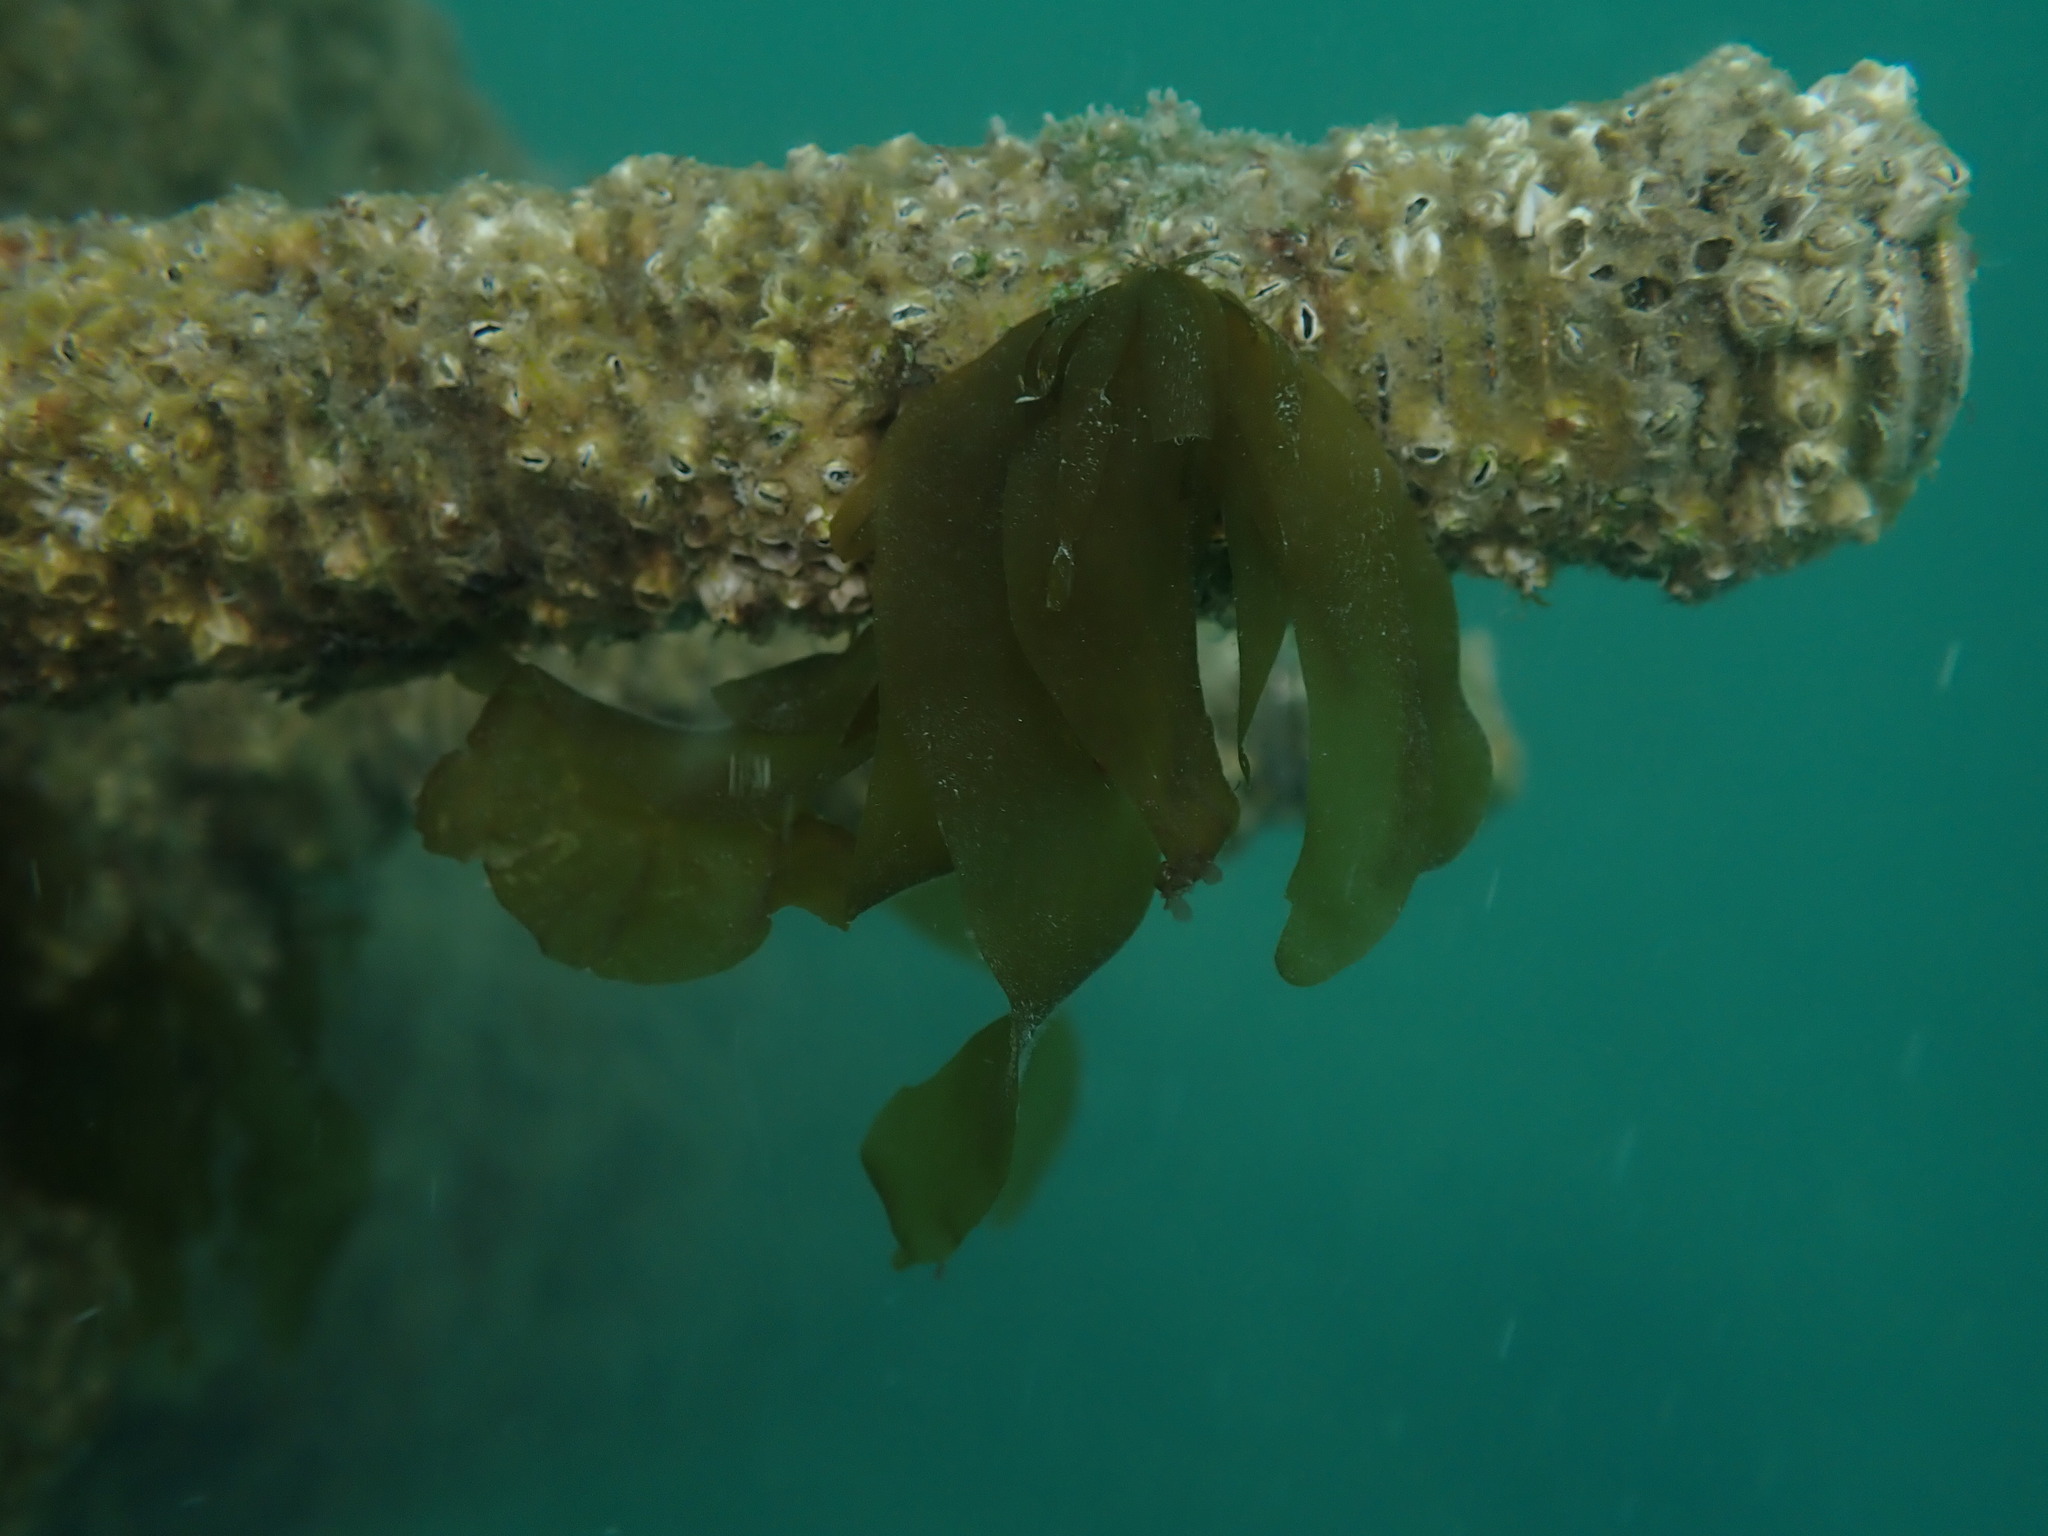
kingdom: Chromista
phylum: Ochrophyta
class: Phaeophyceae
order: Laminariales
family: Alariaceae
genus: Undaria
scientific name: Undaria pinnatifida
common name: Asian kelp
